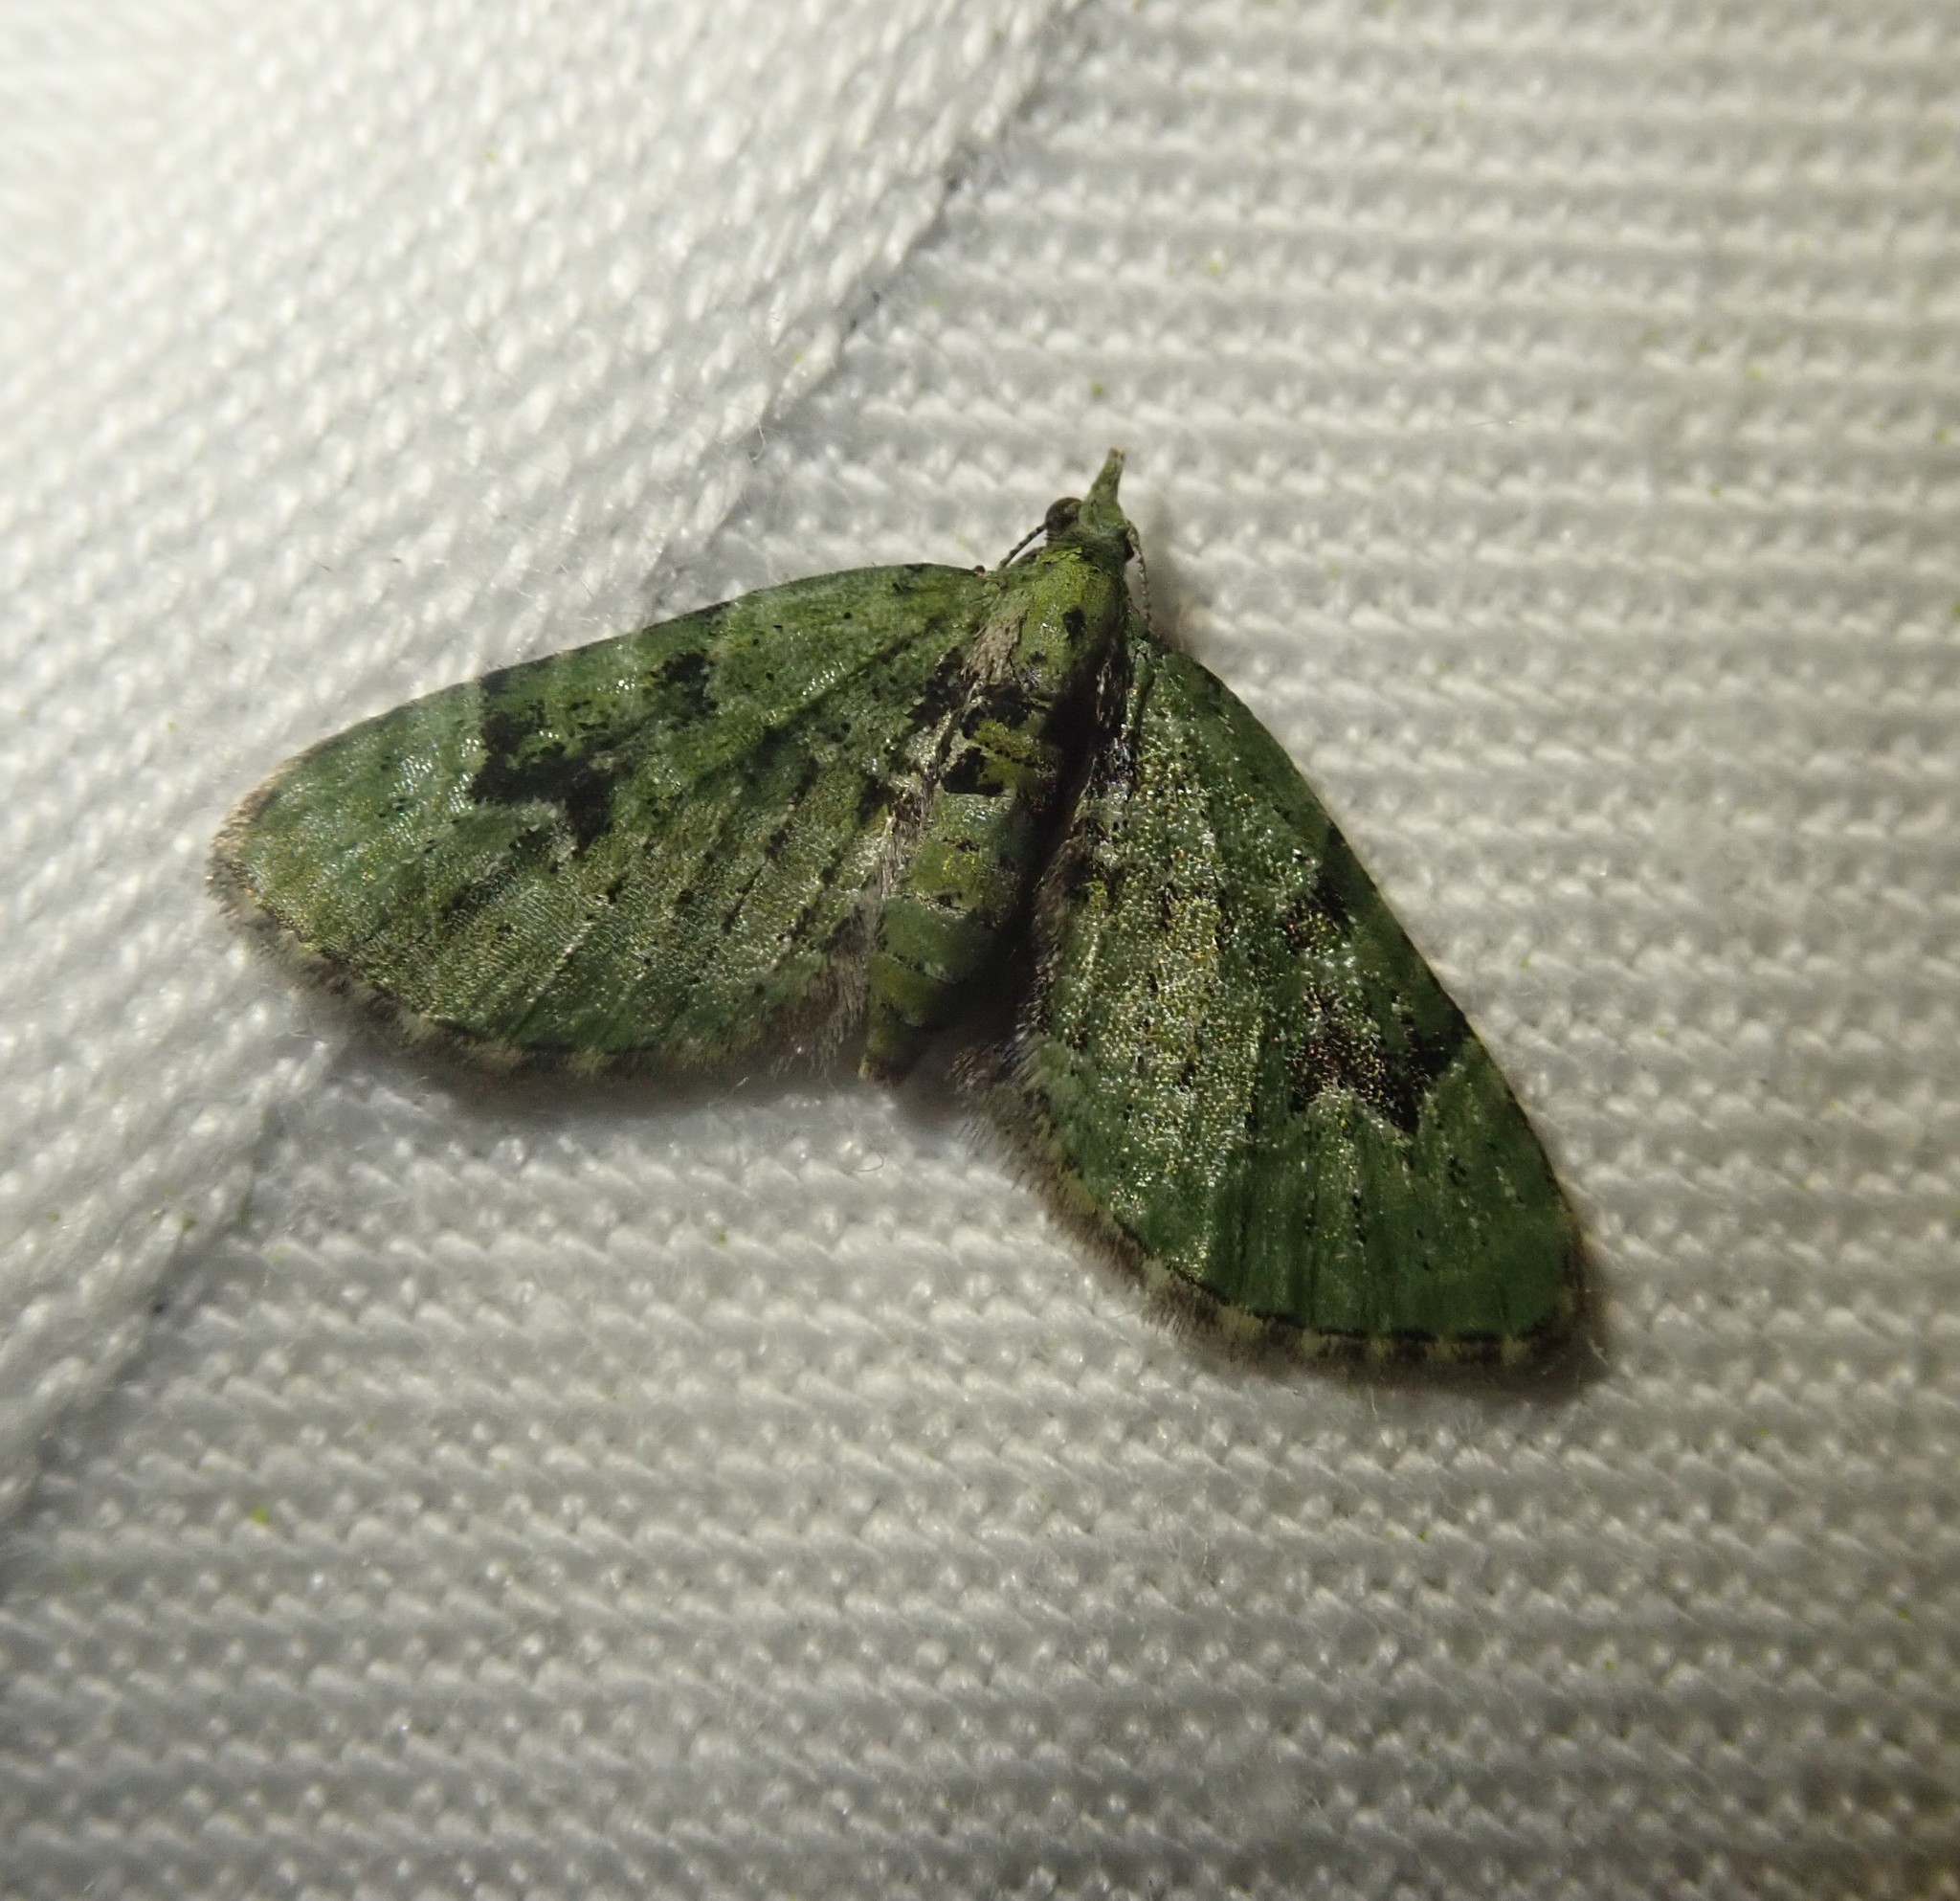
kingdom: Animalia
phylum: Arthropoda
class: Insecta
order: Lepidoptera
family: Geometridae
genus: Chloroclystis
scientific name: Chloroclystis v-ata
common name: V-pug
